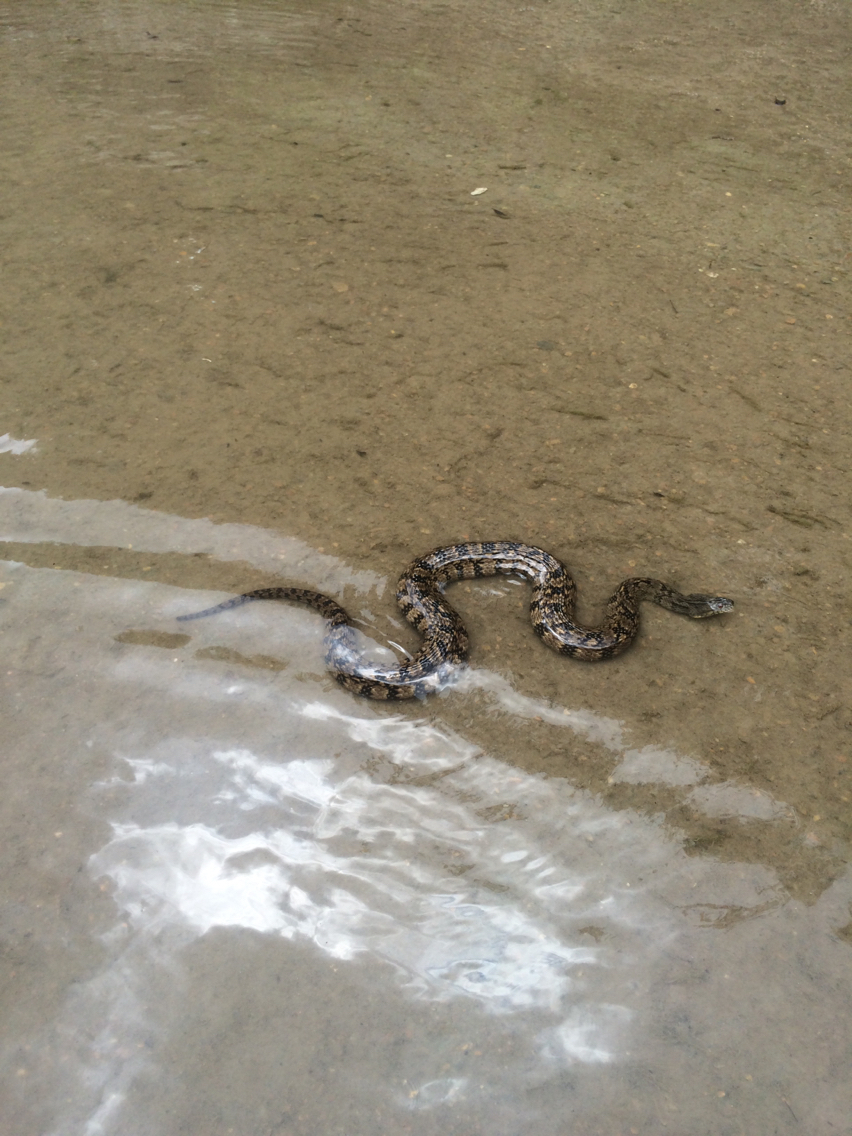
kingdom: Animalia
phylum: Chordata
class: Squamata
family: Colubridae
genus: Nerodia
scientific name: Nerodia rhombifer
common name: Diamondback water snake
